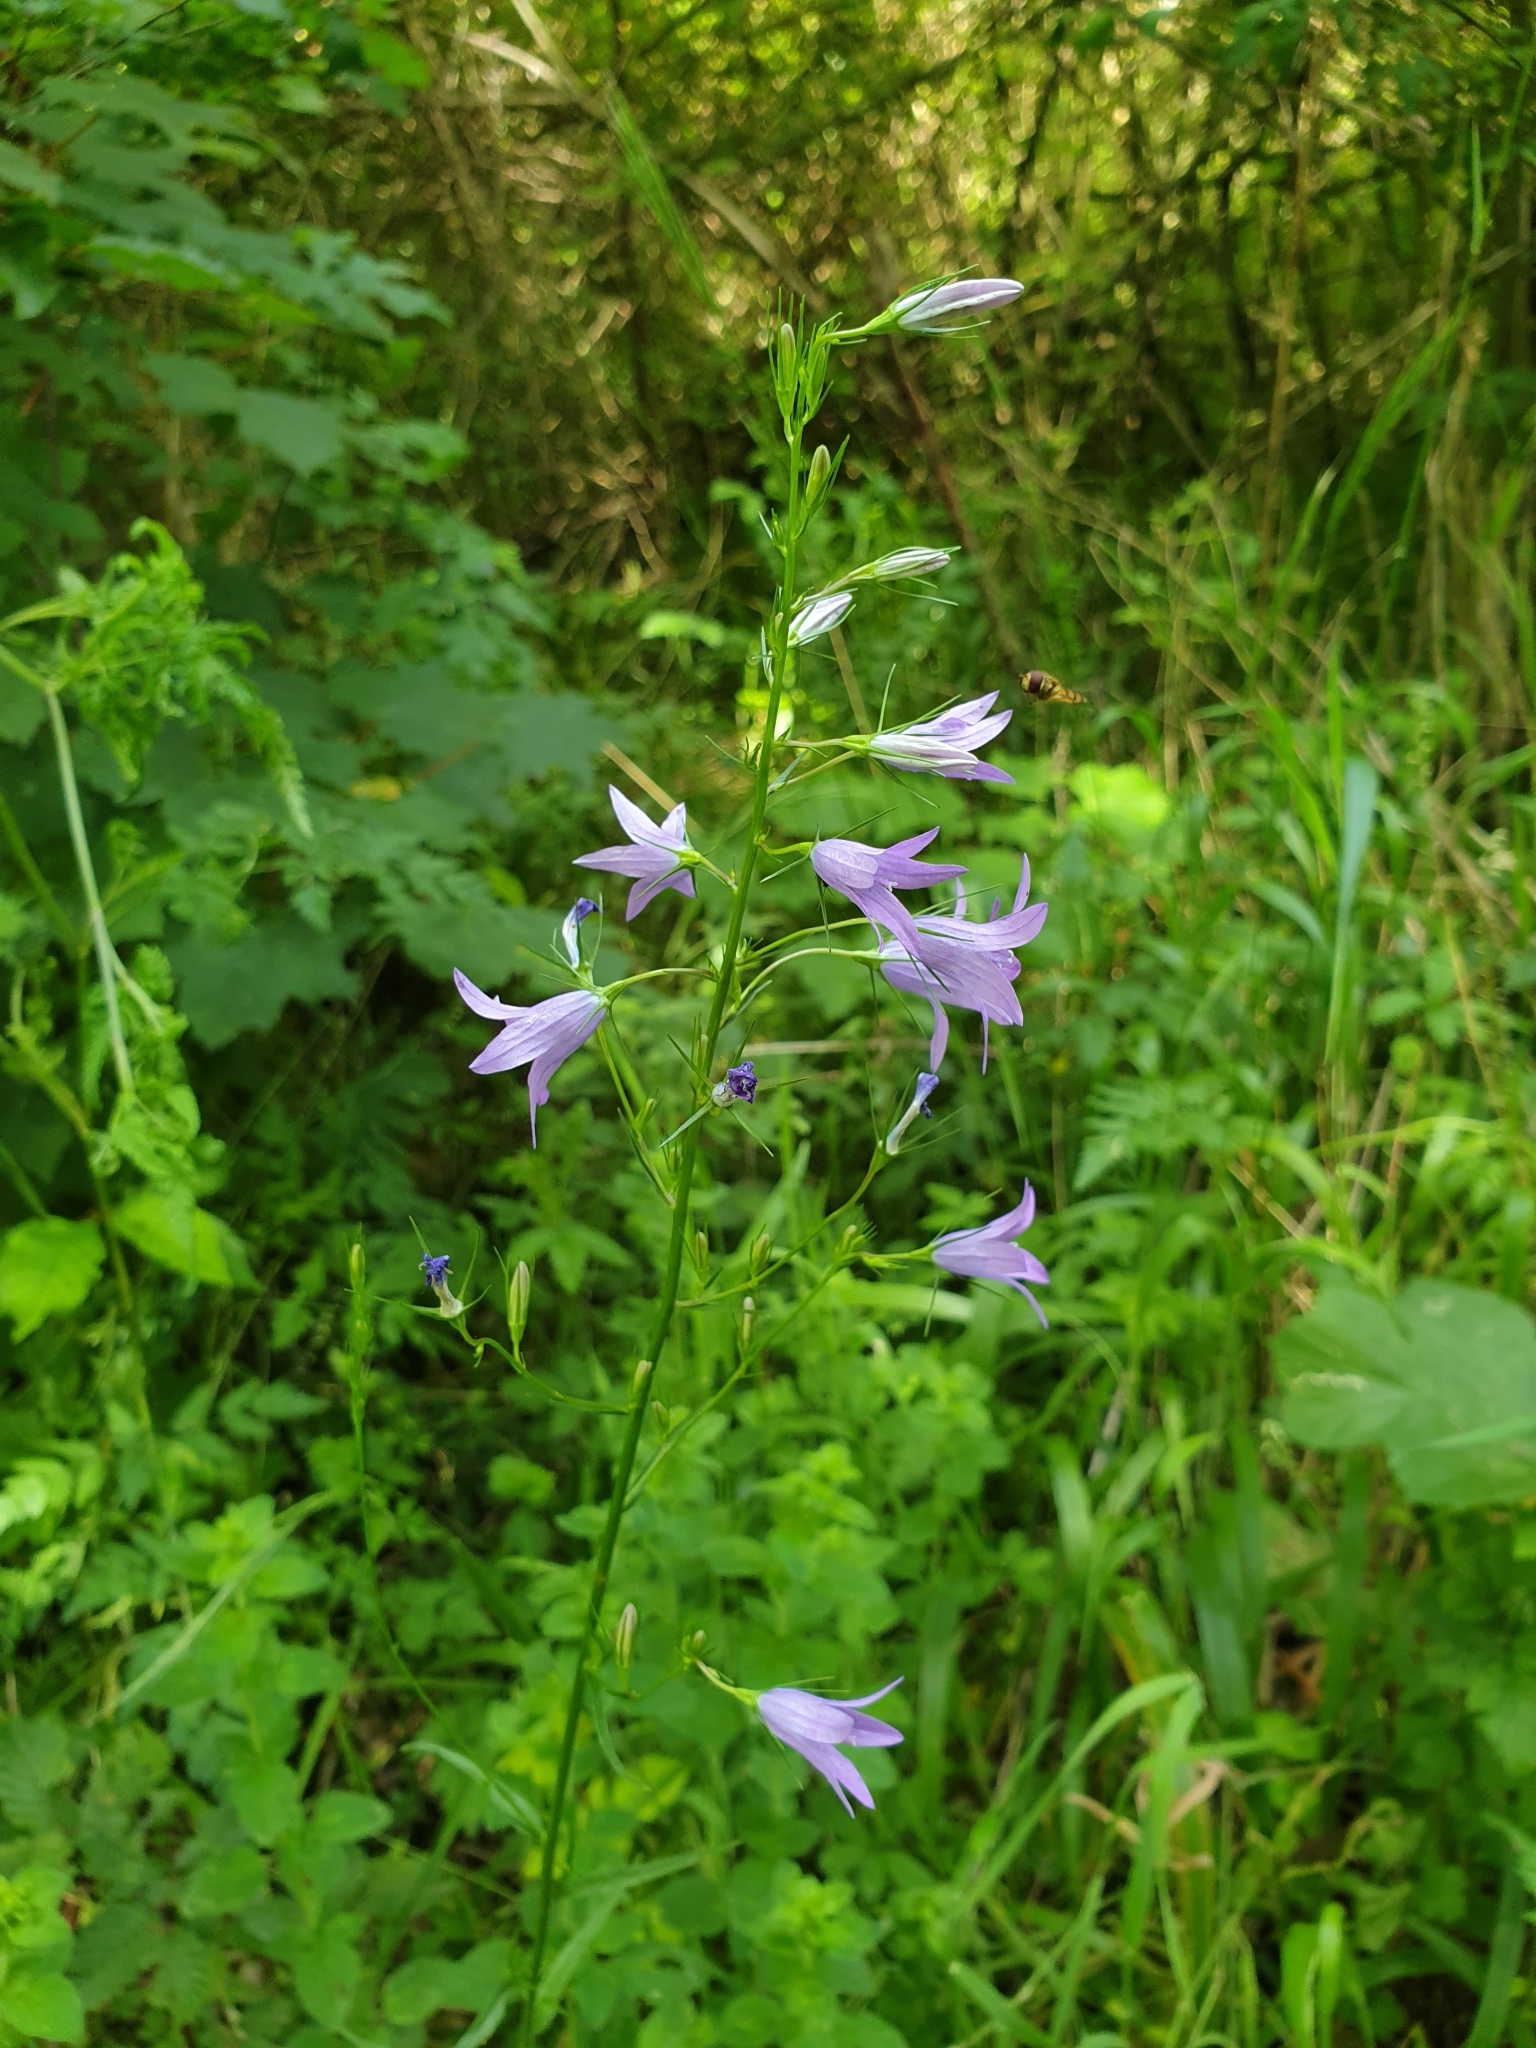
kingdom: Plantae
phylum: Tracheophyta
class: Magnoliopsida
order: Asterales
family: Campanulaceae
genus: Campanula
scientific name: Campanula rapunculus
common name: Rampion bellflower
